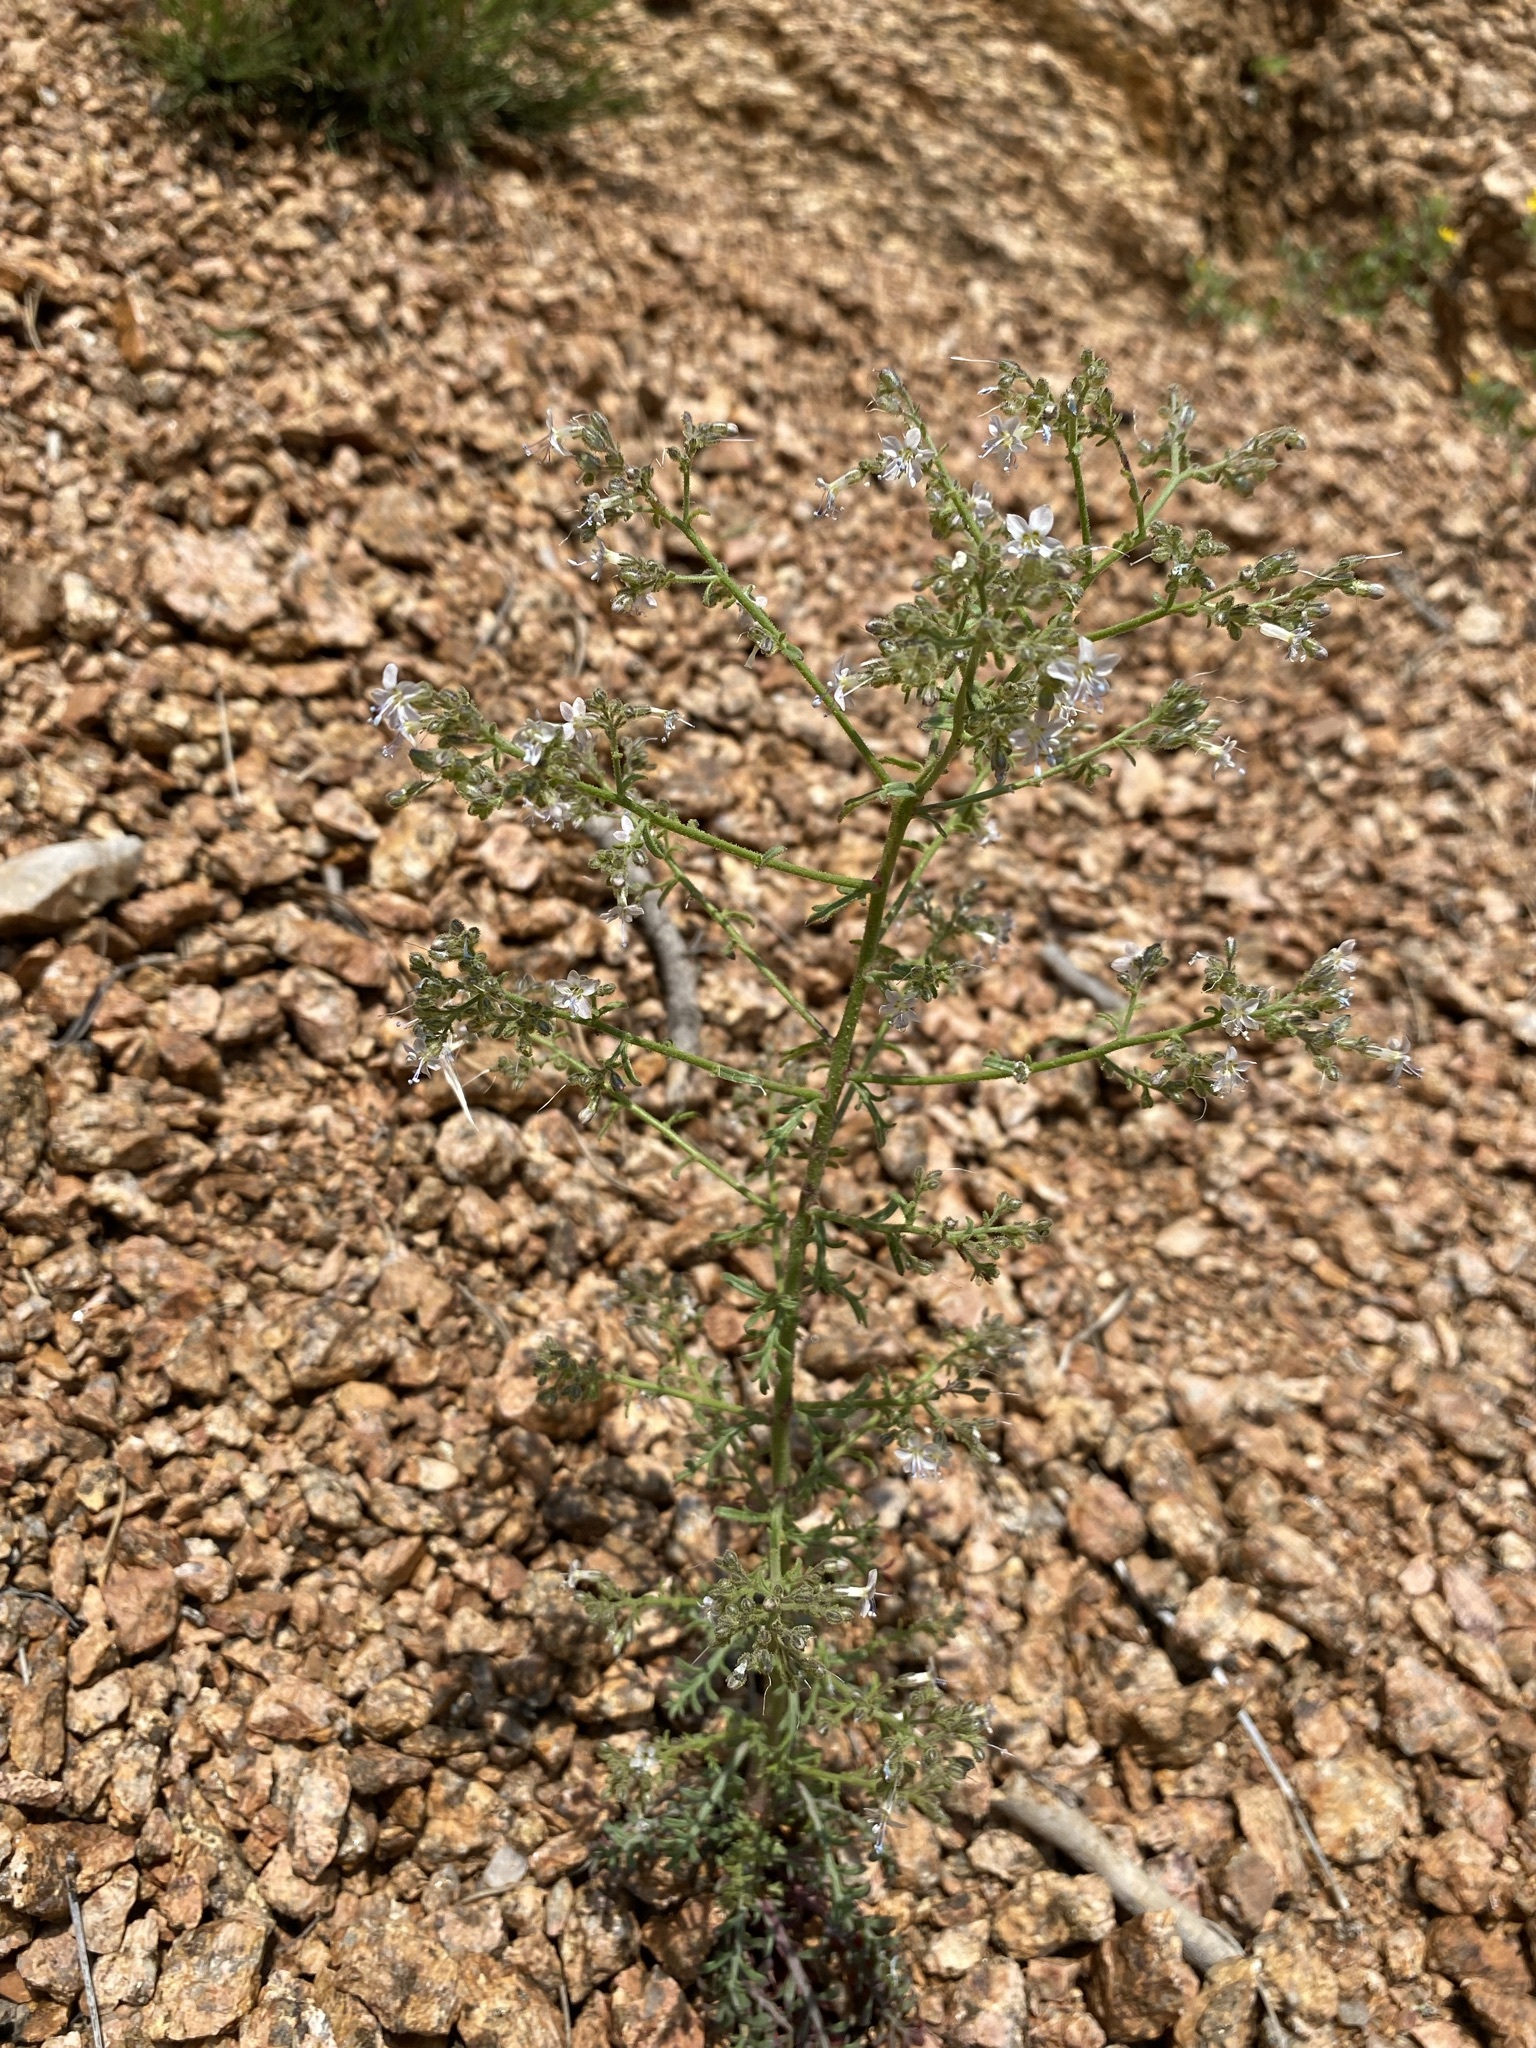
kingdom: Plantae
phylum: Tracheophyta
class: Magnoliopsida
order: Ericales
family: Polemoniaceae
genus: Aliciella
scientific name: Aliciella pinnatifida
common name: Sticky gilia
